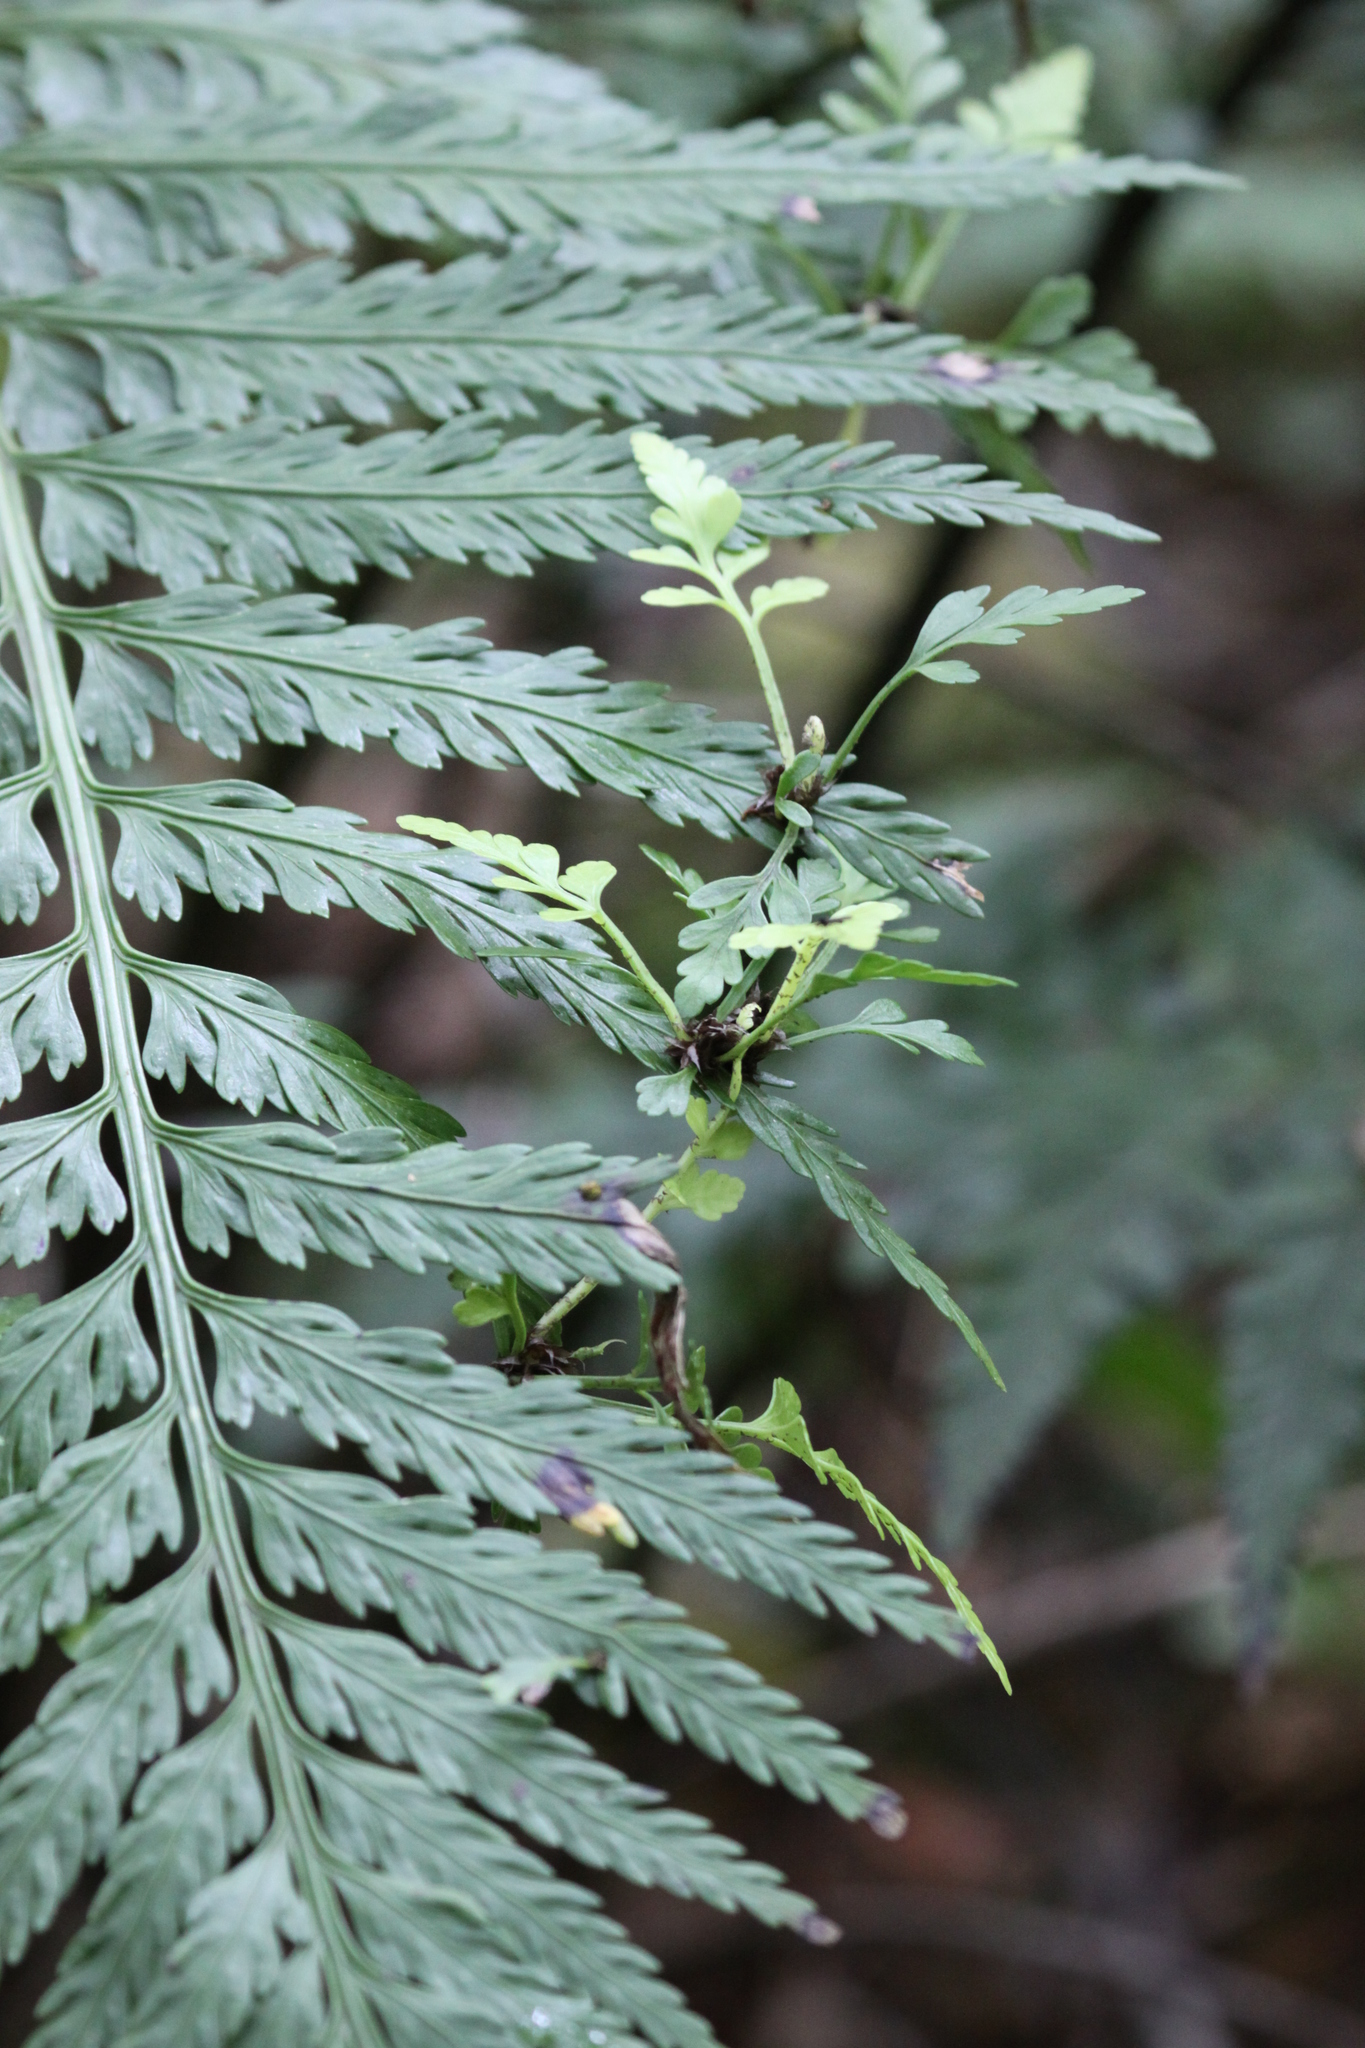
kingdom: Plantae
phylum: Tracheophyta
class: Polypodiopsida
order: Polypodiales
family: Aspleniaceae
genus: Asplenium
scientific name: Asplenium bulbiferum
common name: Mother fern
